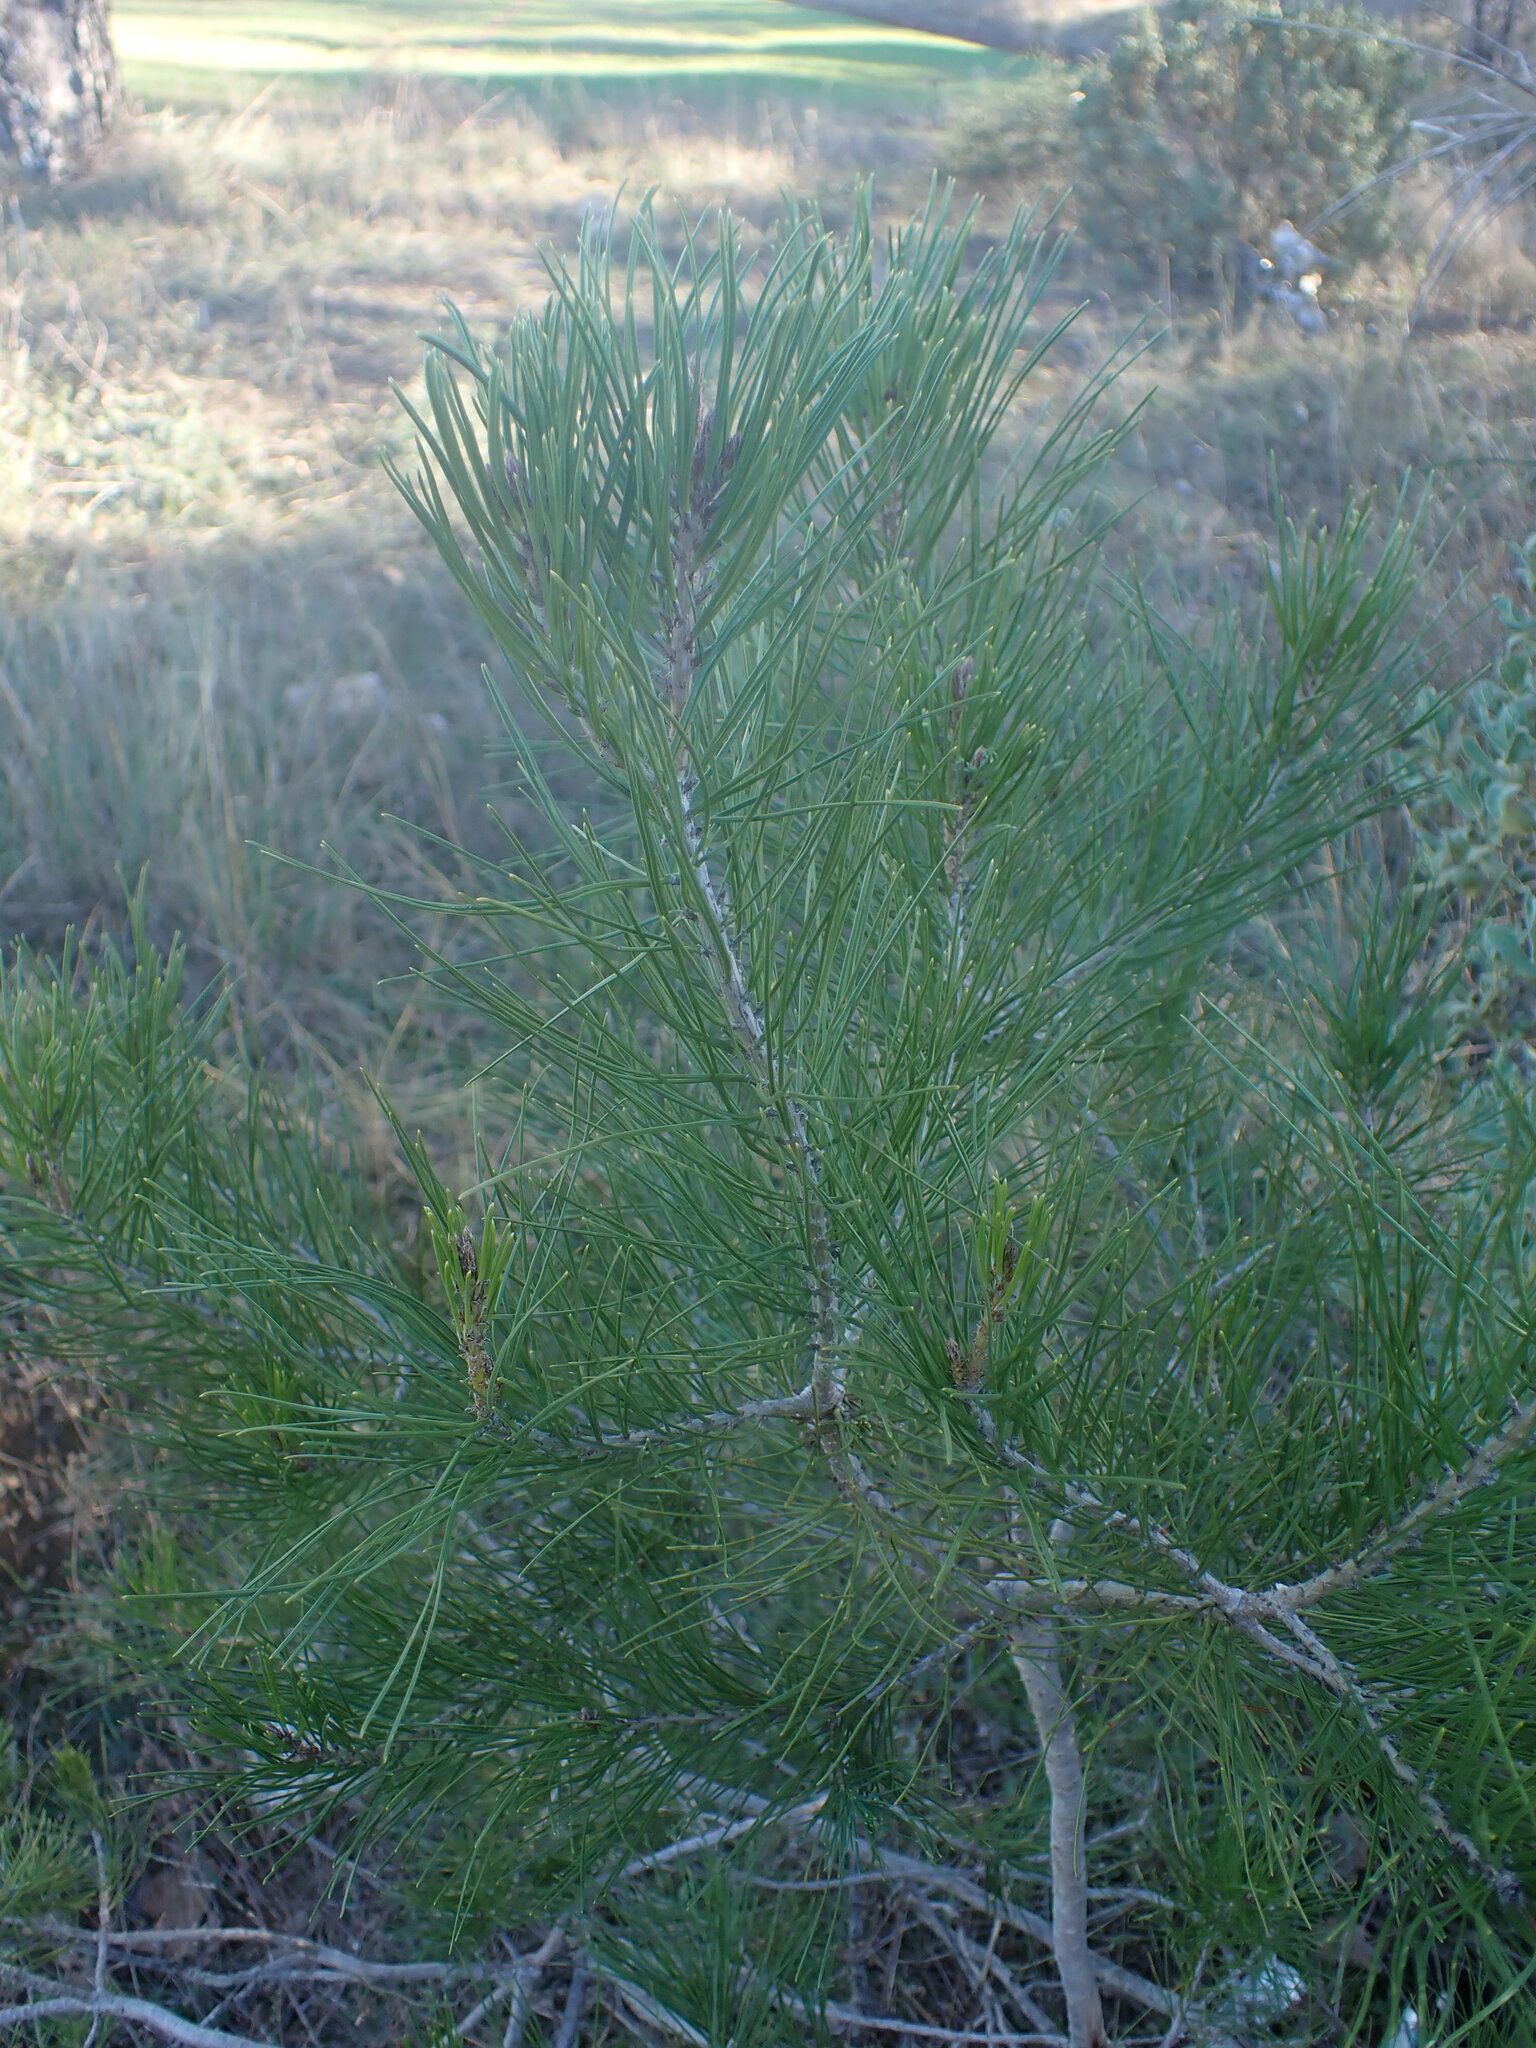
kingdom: Plantae
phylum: Tracheophyta
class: Pinopsida
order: Pinales
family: Pinaceae
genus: Pinus
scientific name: Pinus halepensis
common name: Aleppo pine
